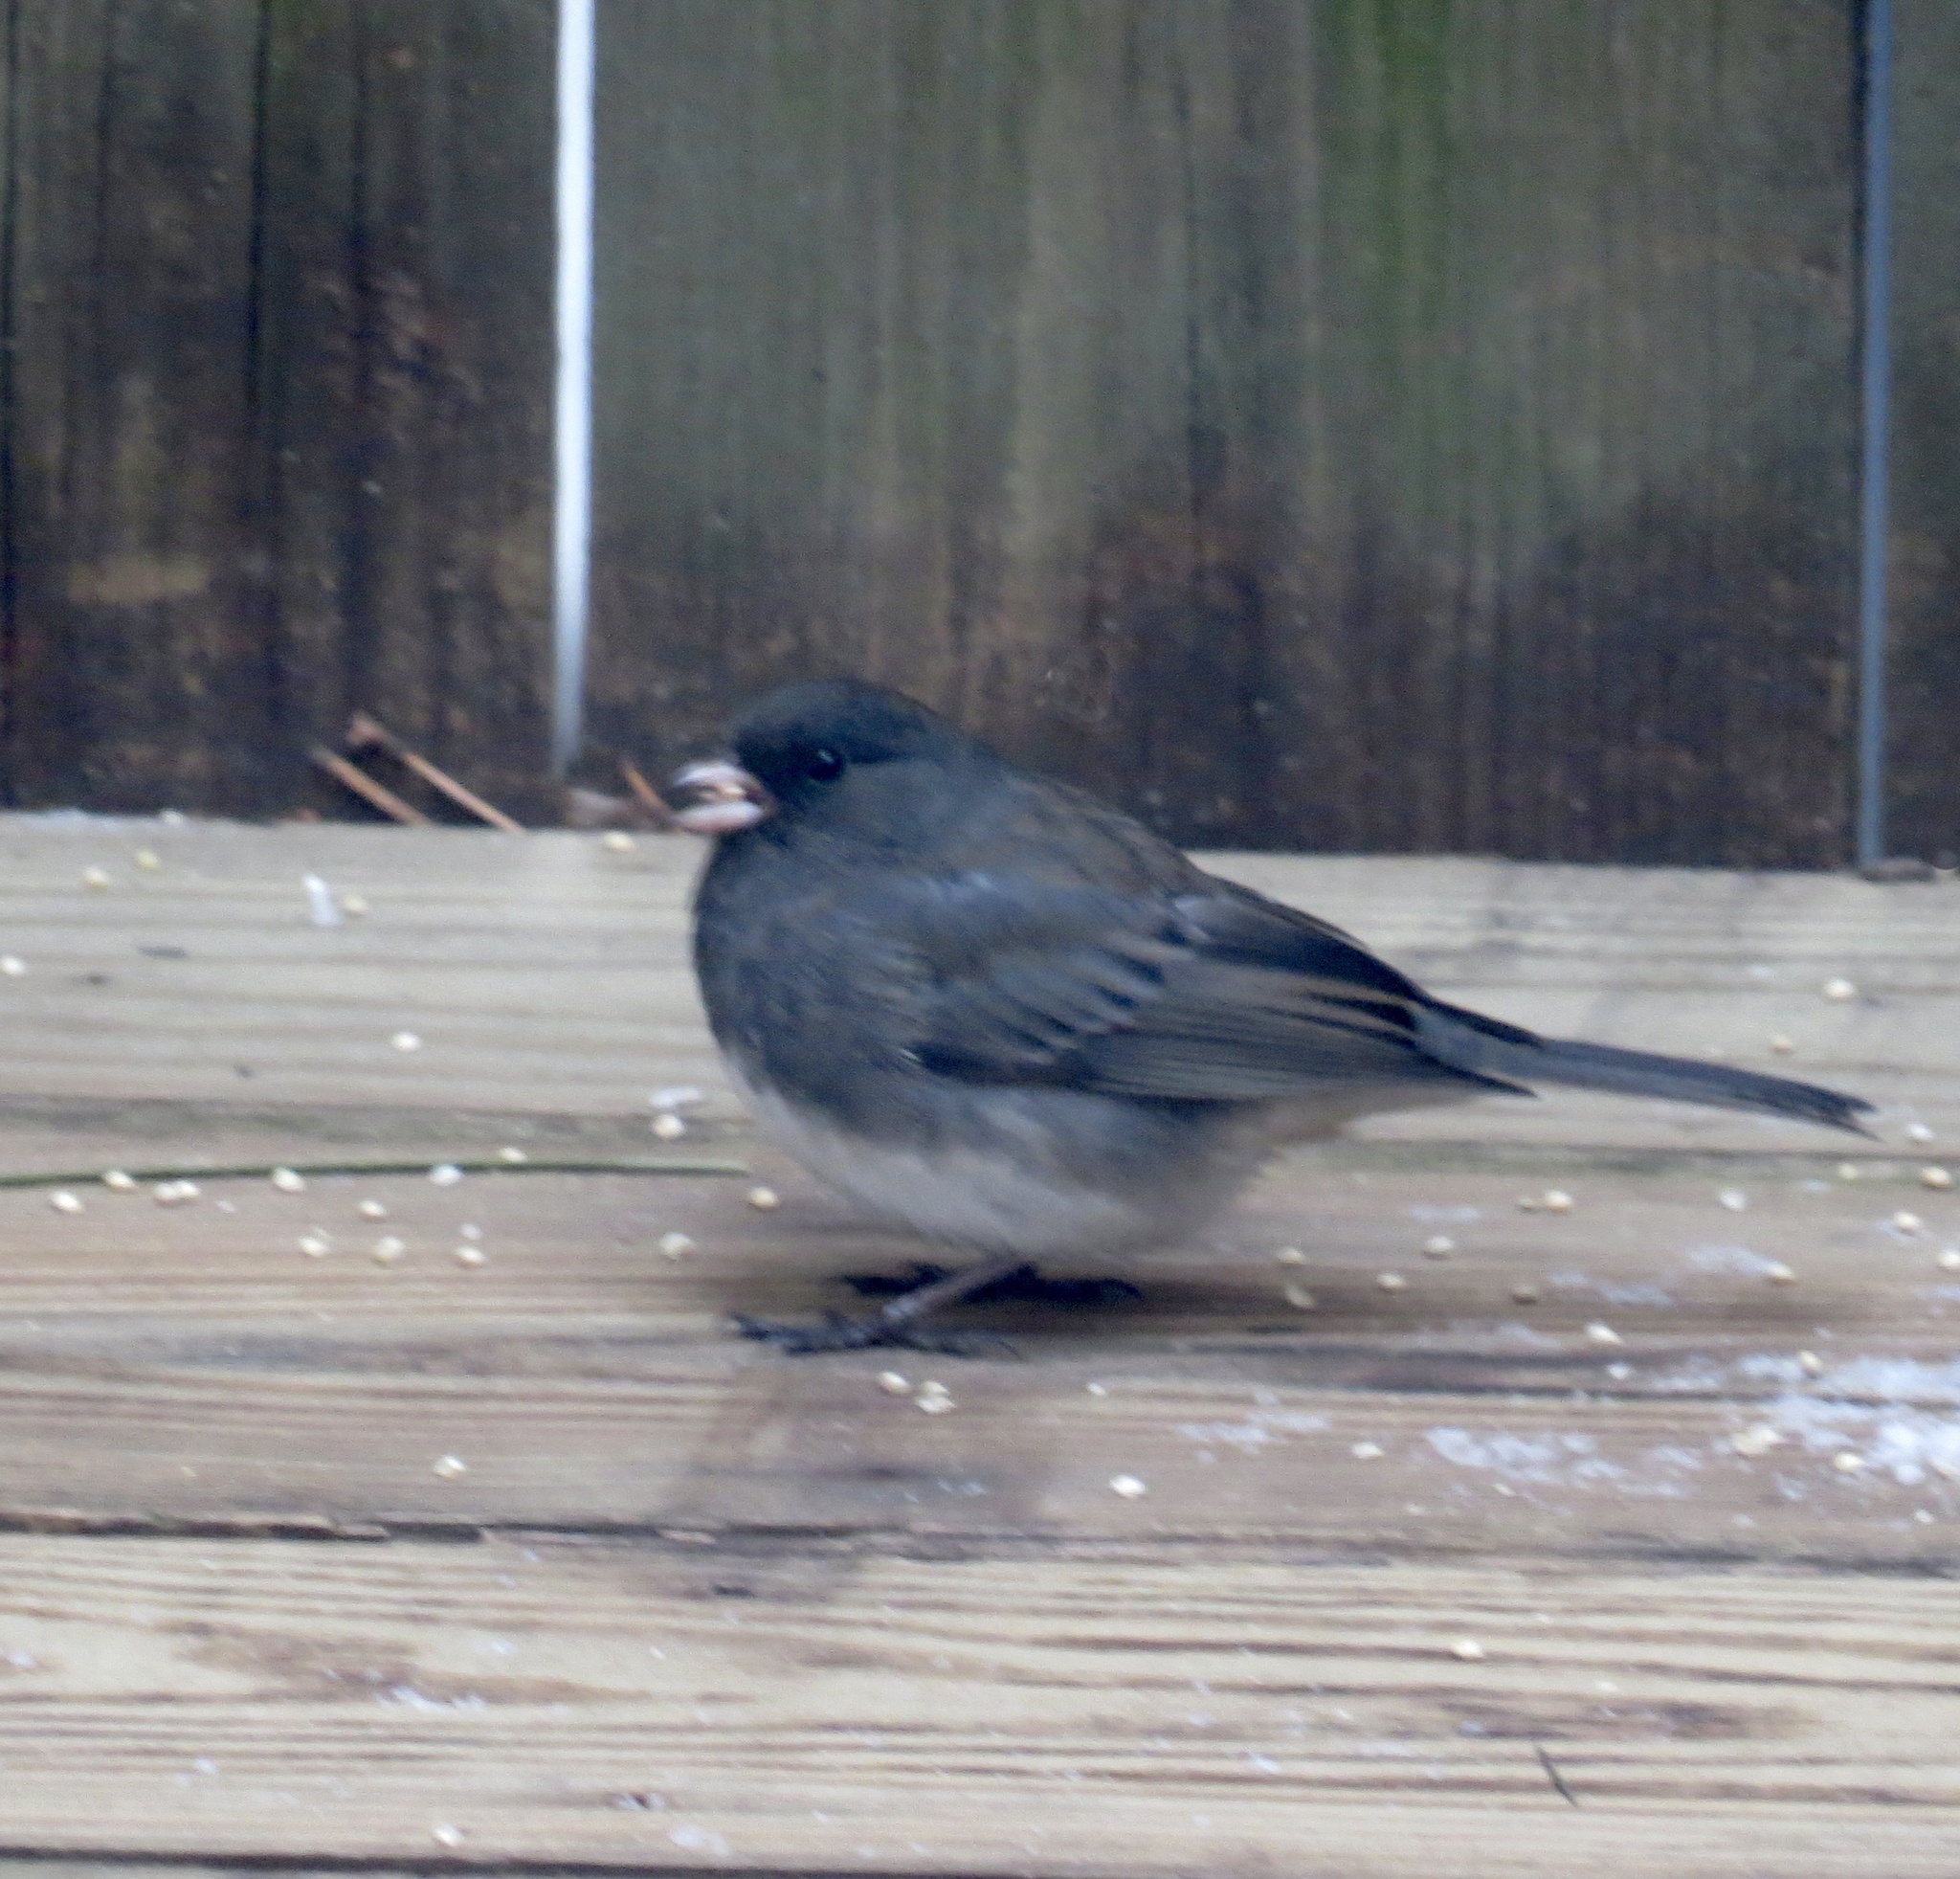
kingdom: Animalia
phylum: Chordata
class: Aves
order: Passeriformes
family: Passerellidae
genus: Junco
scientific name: Junco hyemalis
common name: Dark-eyed junco
